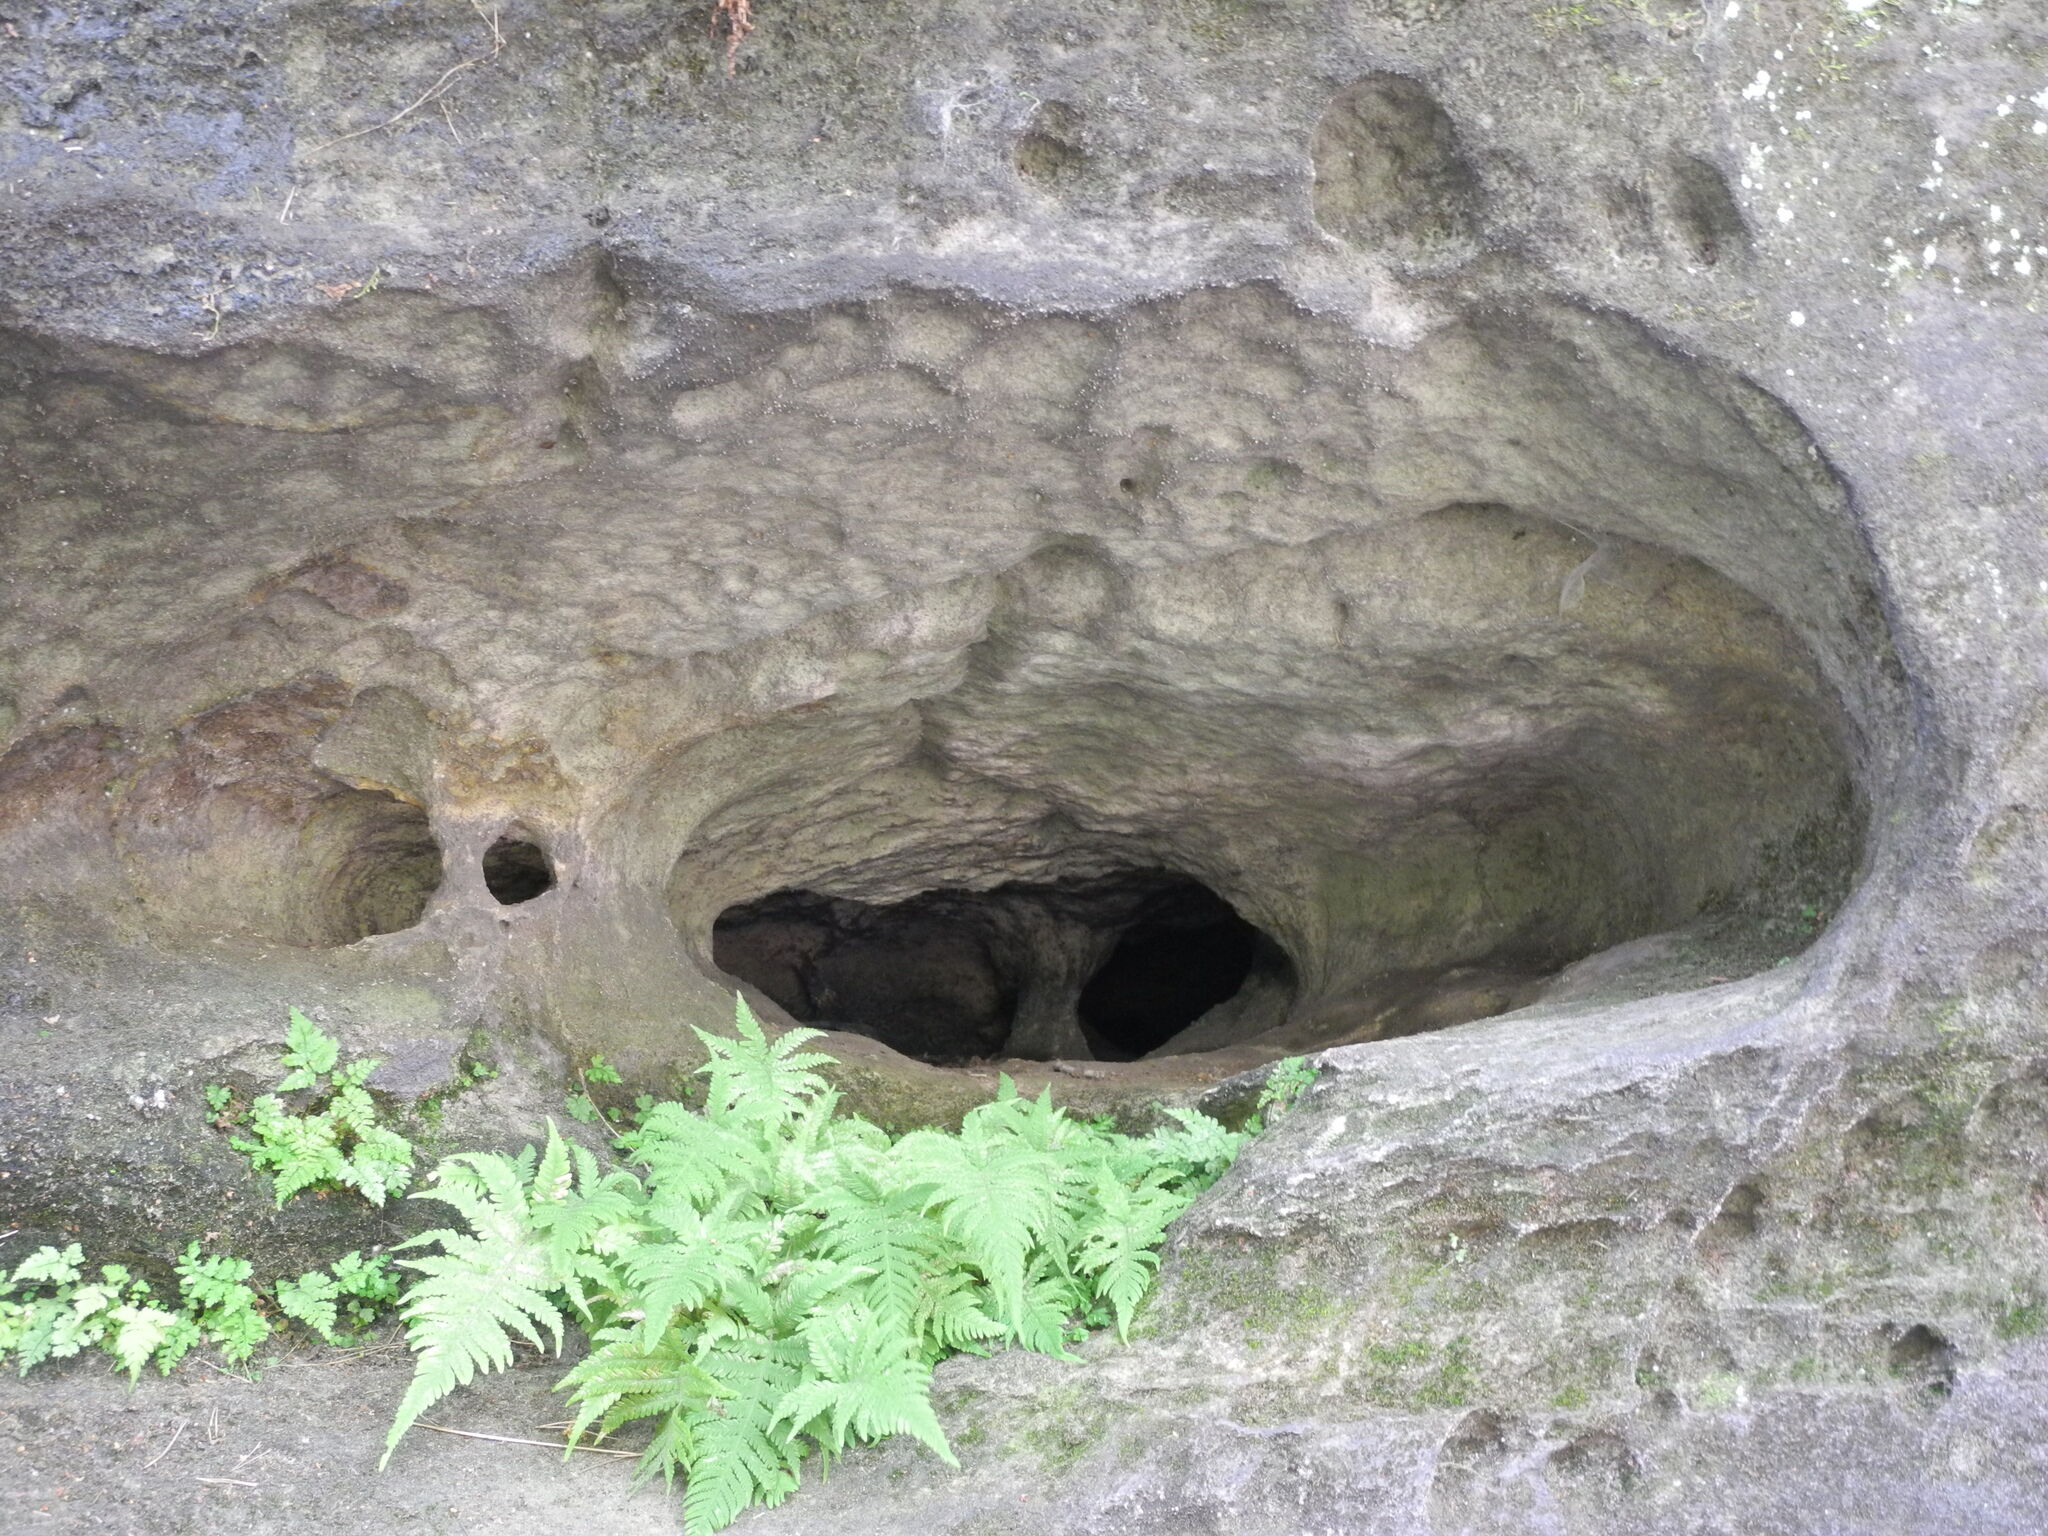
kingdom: Plantae
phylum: Tracheophyta
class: Polypodiopsida
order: Polypodiales
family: Thelypteridaceae
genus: Phegopteris
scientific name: Phegopteris connectilis
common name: Beech fern
